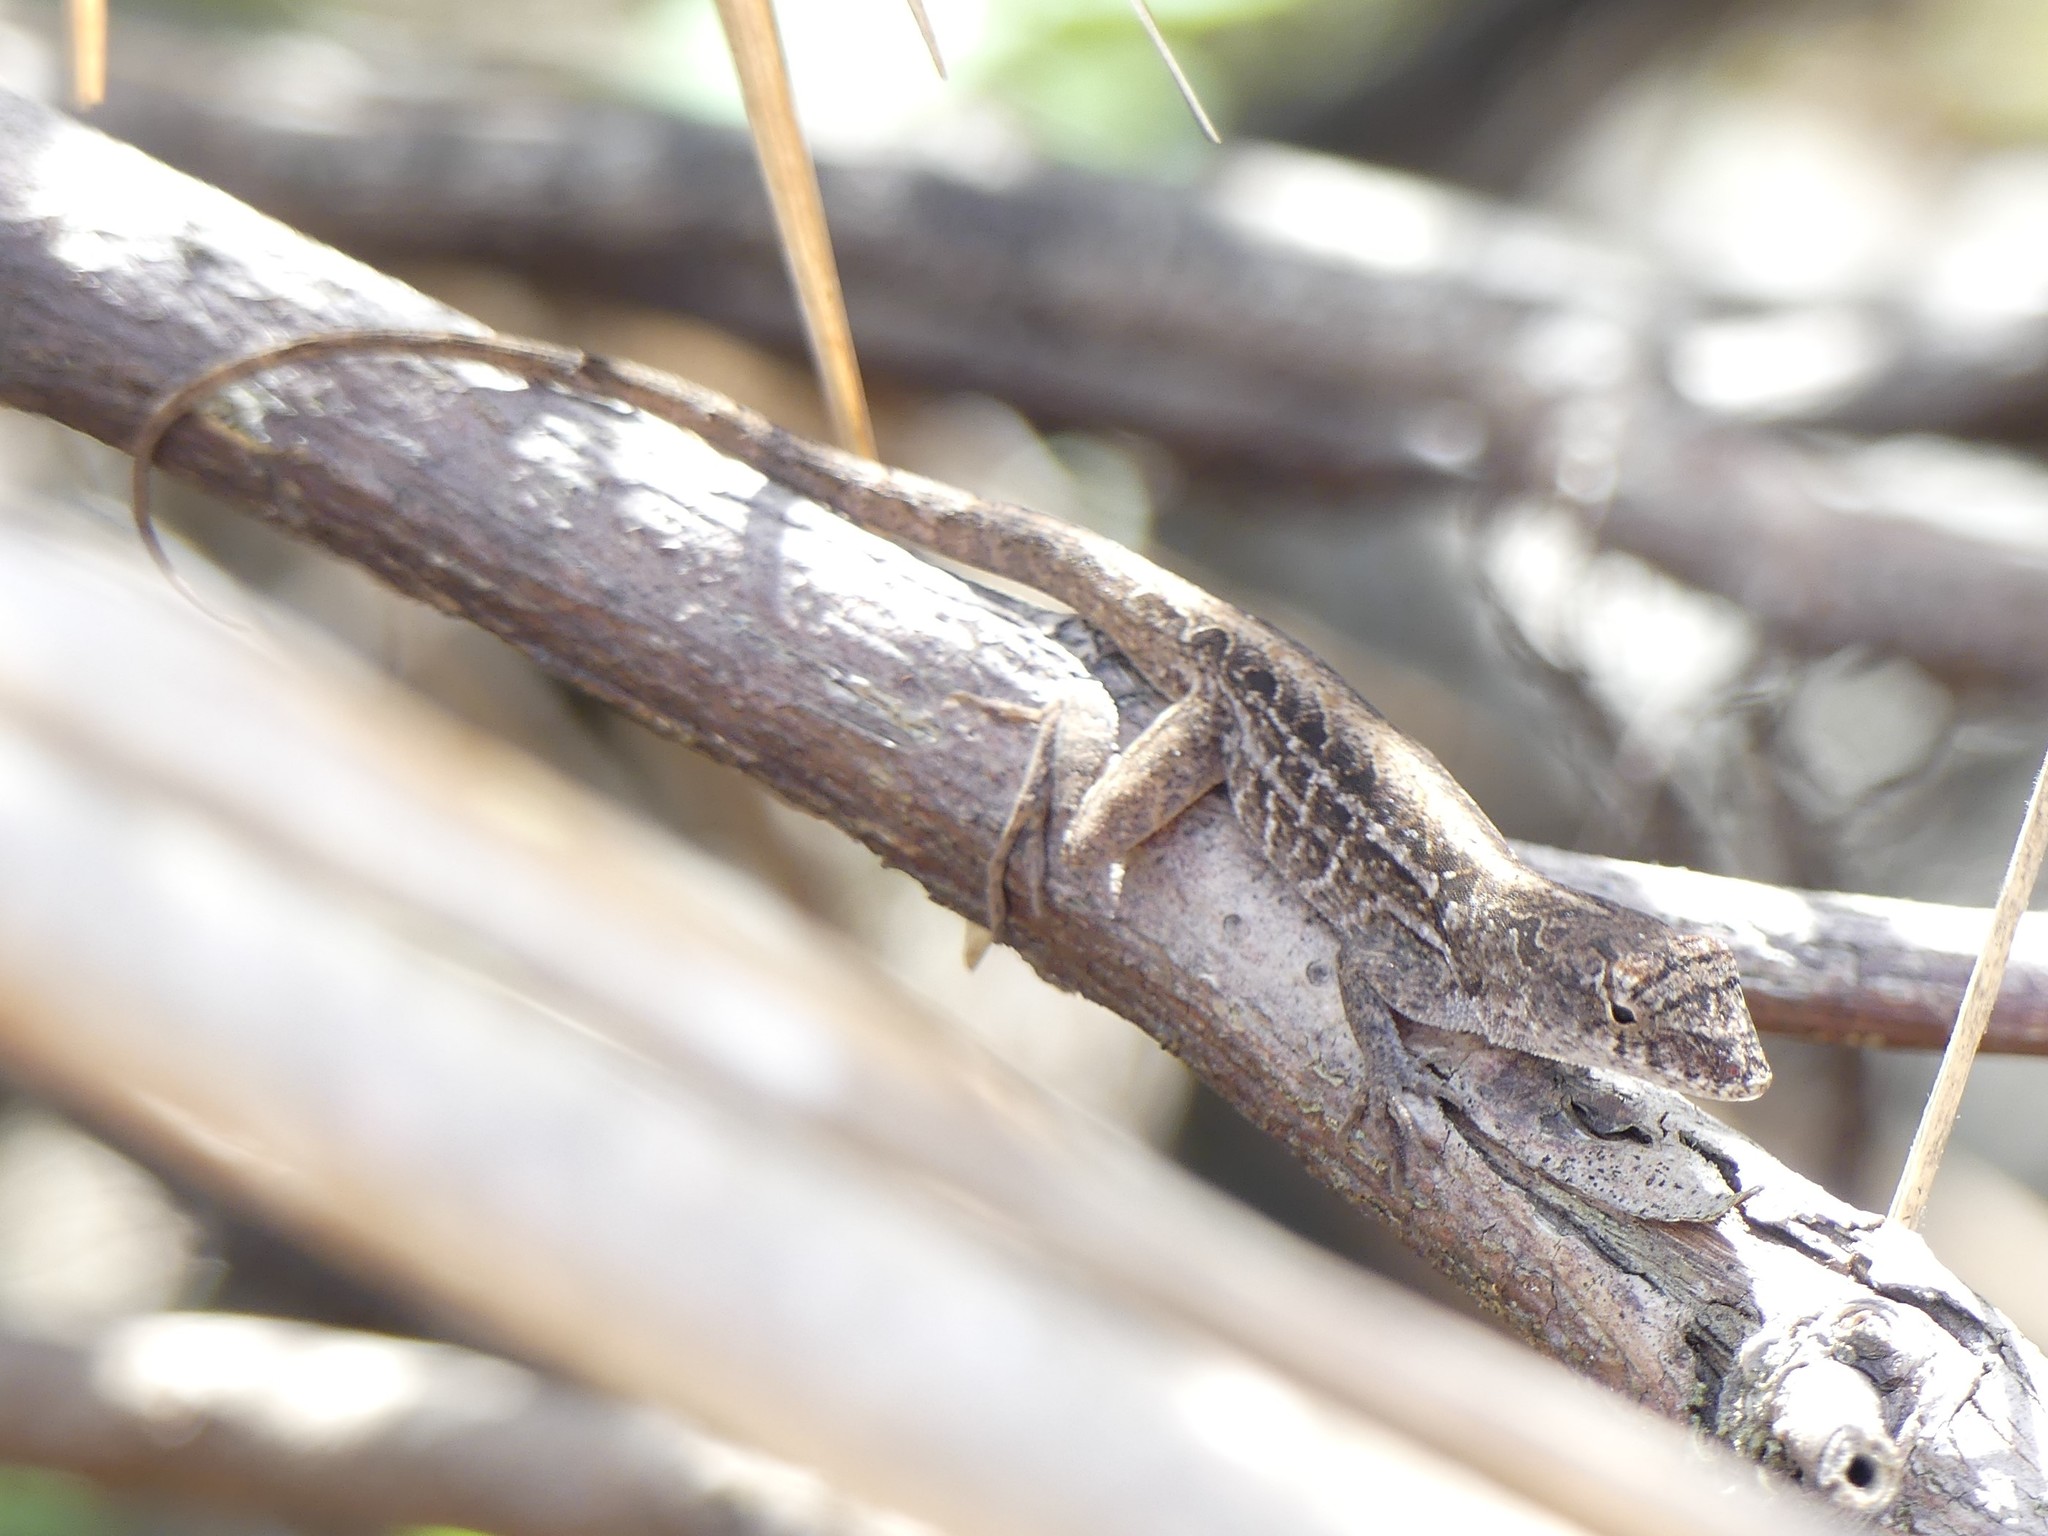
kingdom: Animalia
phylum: Chordata
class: Squamata
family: Dactyloidae
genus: Anolis
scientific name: Anolis sagrei
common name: Brown anole
